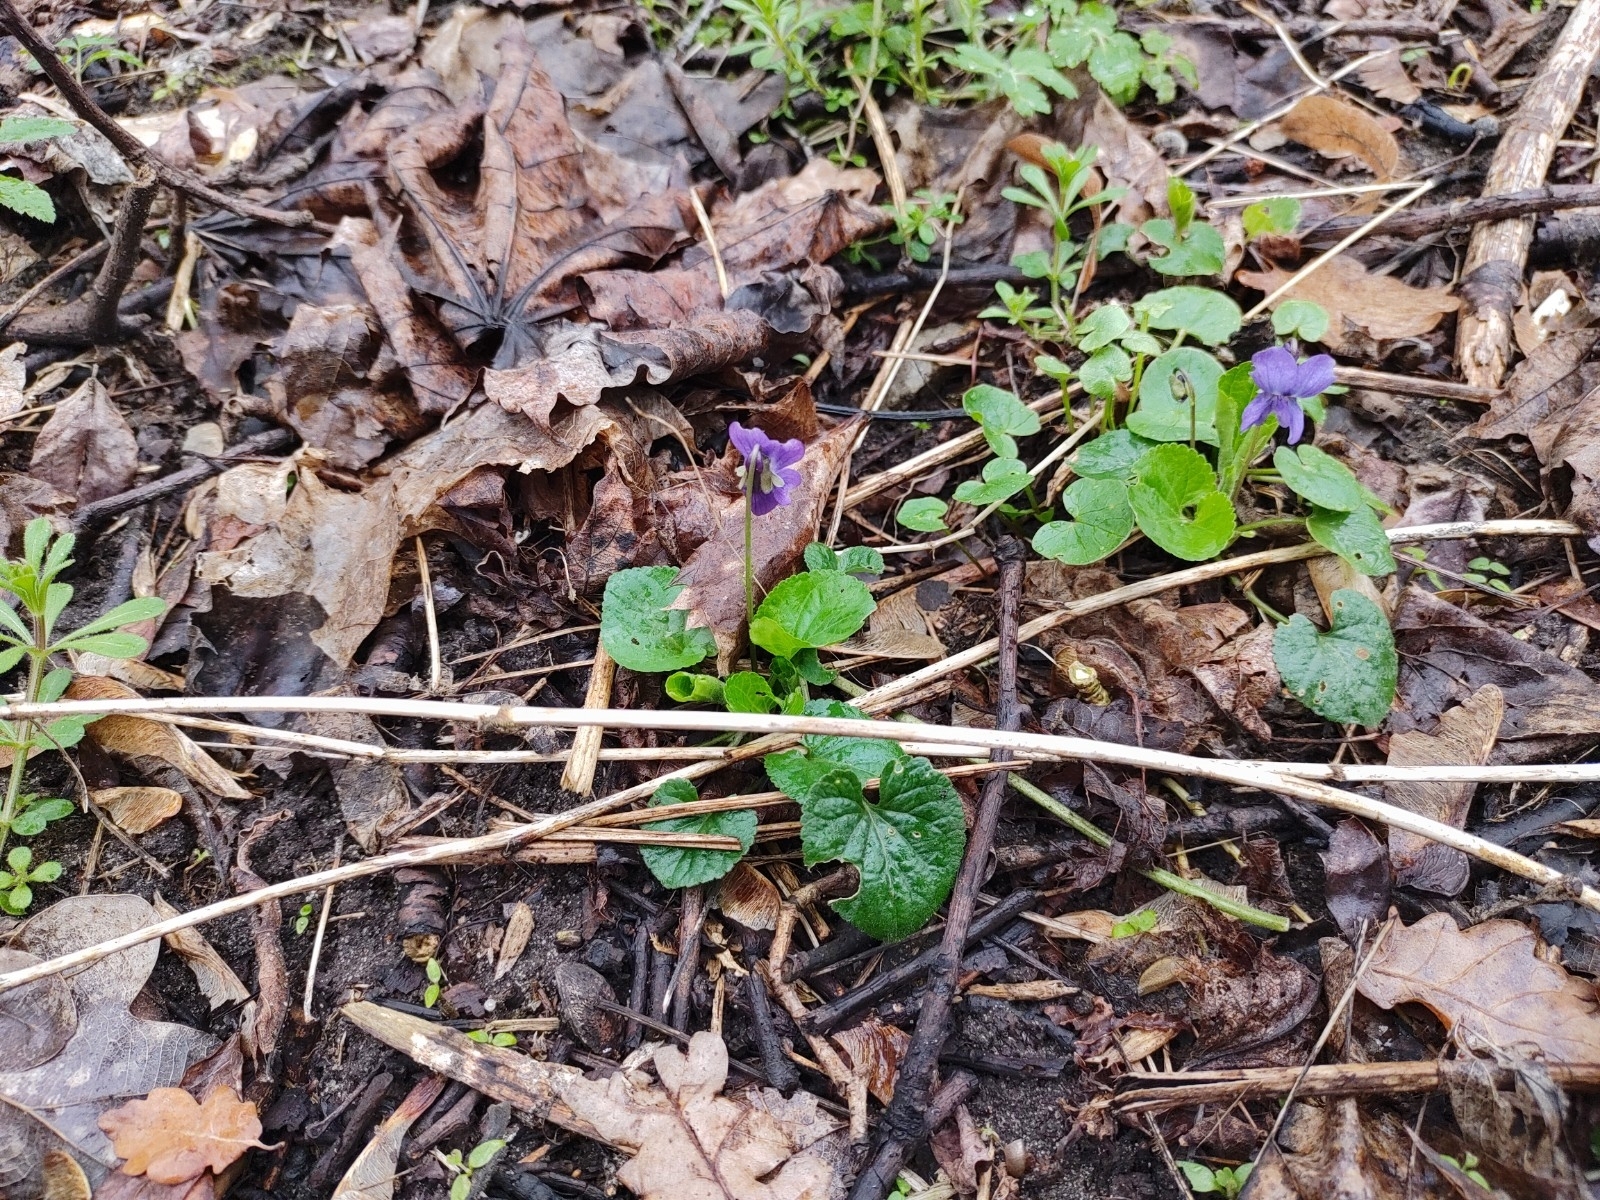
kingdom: Plantae
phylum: Tracheophyta
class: Magnoliopsida
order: Malpighiales
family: Violaceae
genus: Viola
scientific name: Viola odorata
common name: Sweet violet
